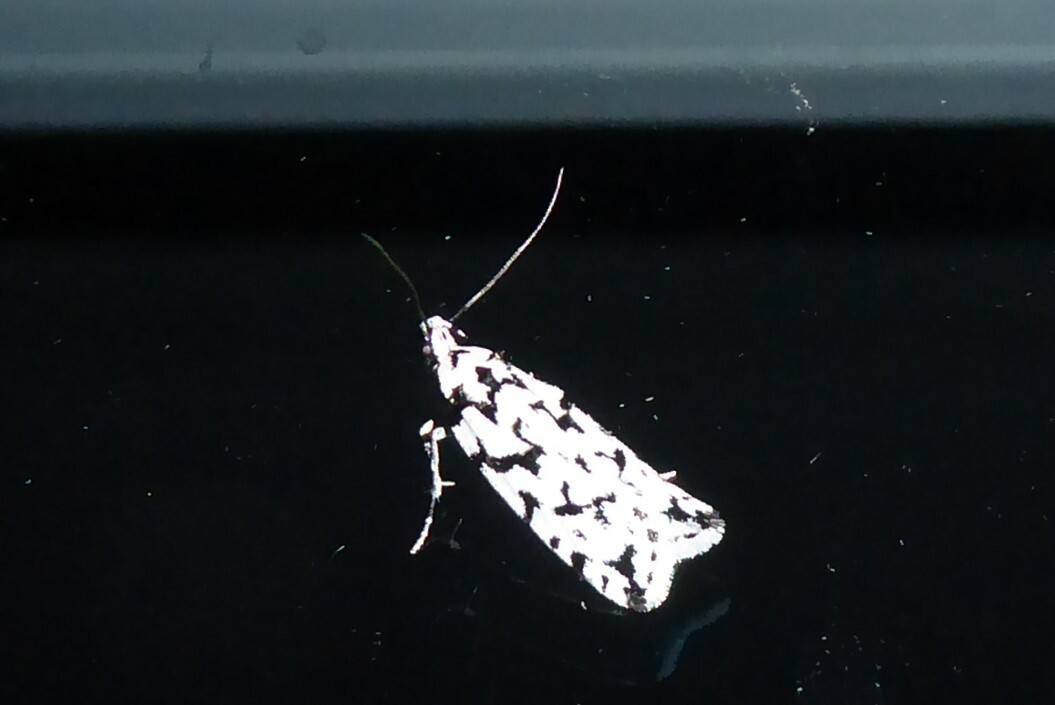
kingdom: Animalia
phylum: Arthropoda
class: Insecta
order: Lepidoptera
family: Oecophoridae
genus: Izatha
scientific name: Izatha katadiktya
